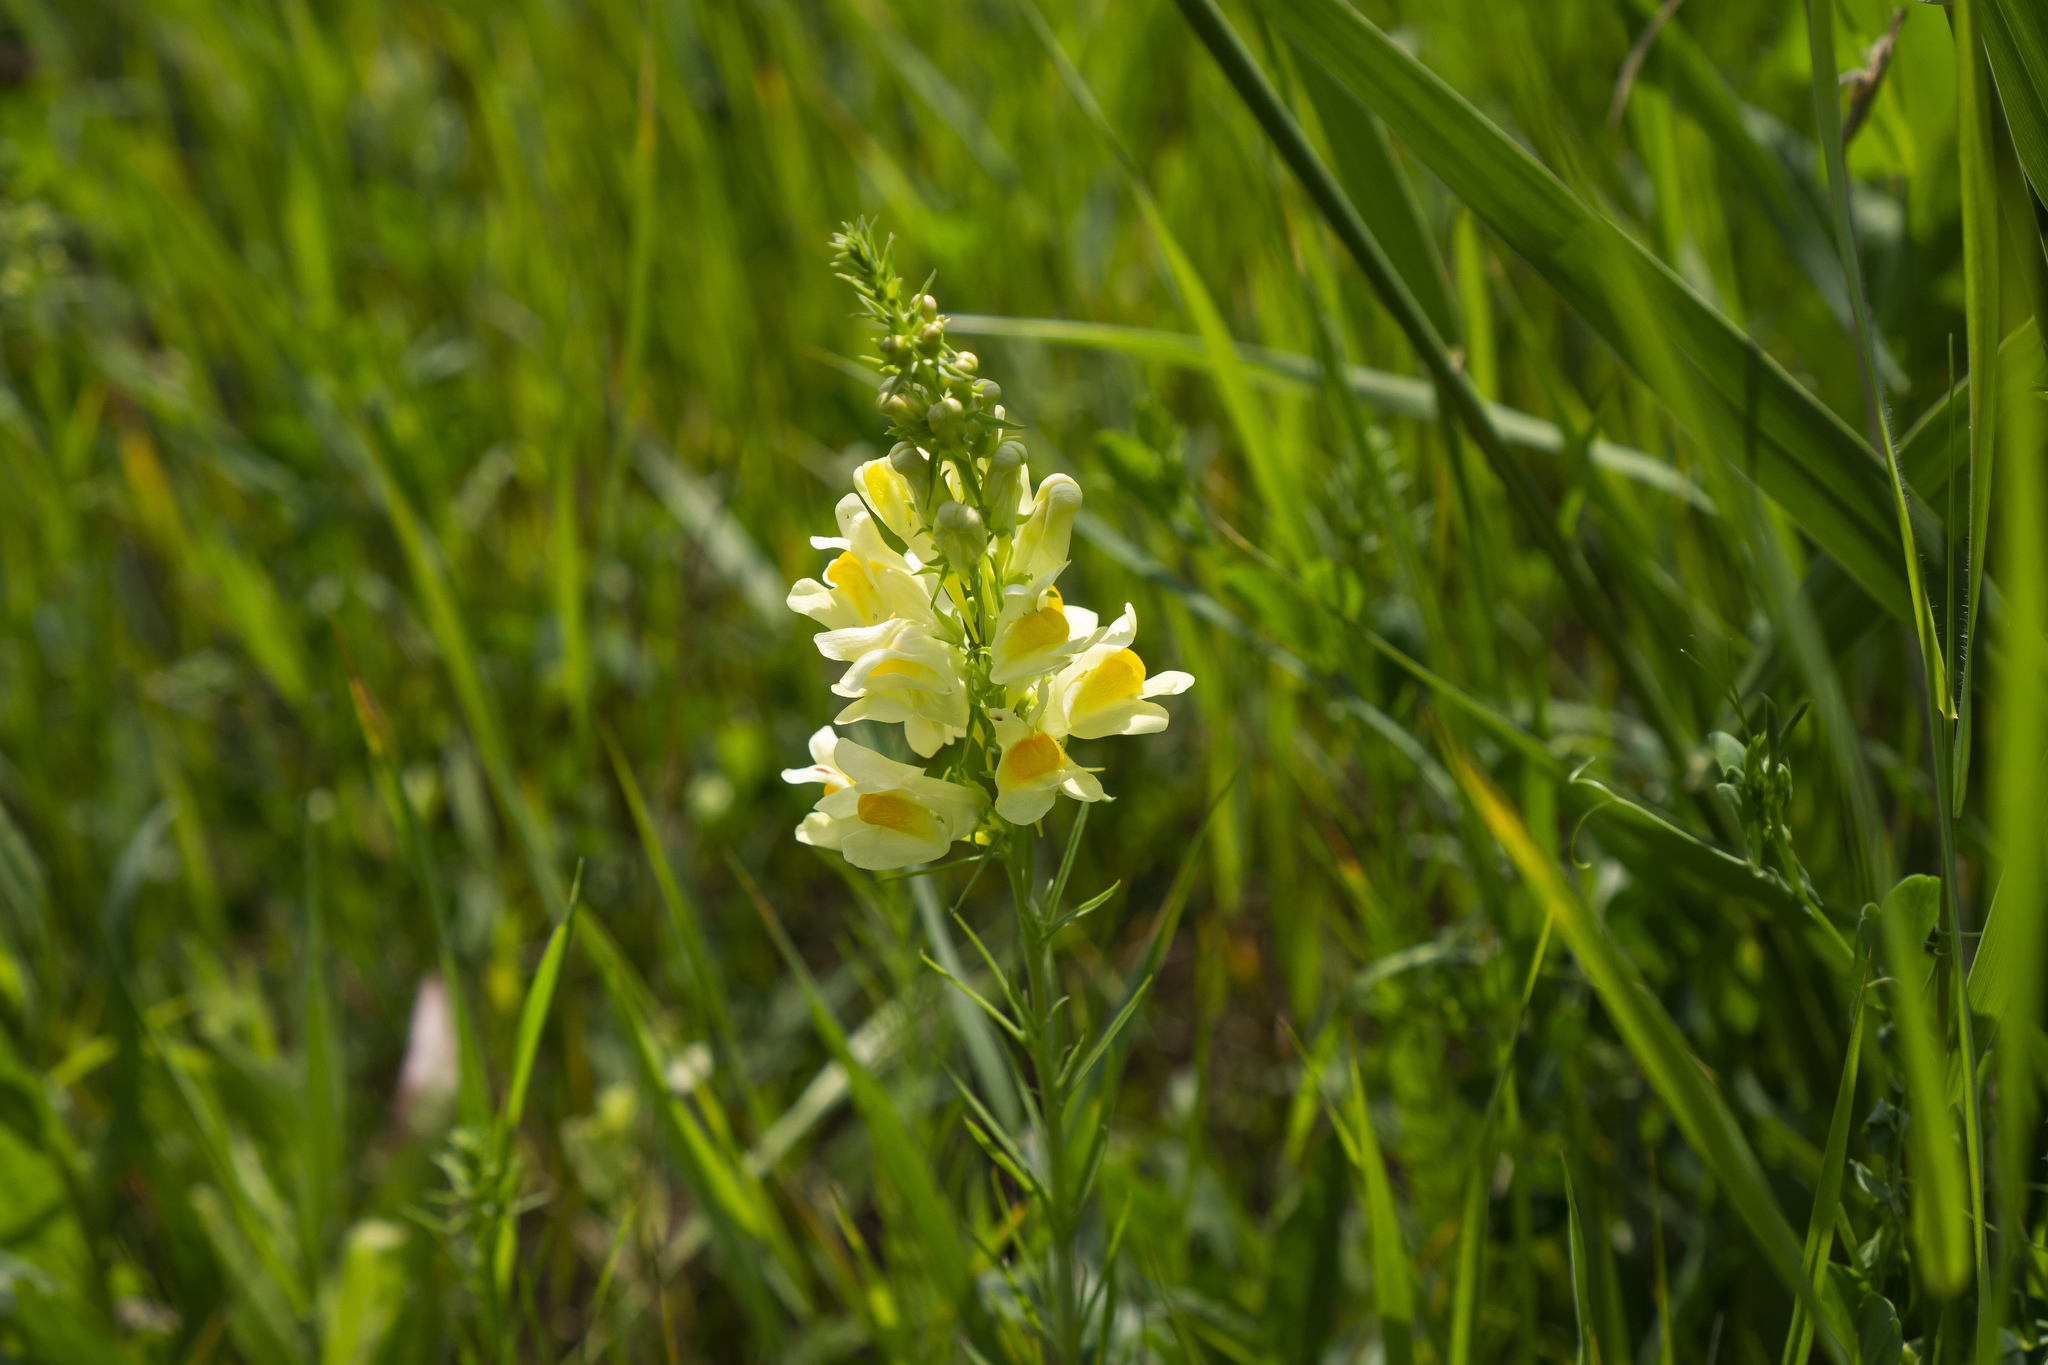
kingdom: Plantae
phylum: Tracheophyta
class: Magnoliopsida
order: Lamiales
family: Plantaginaceae
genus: Linaria
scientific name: Linaria vulgaris
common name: Butter and eggs
